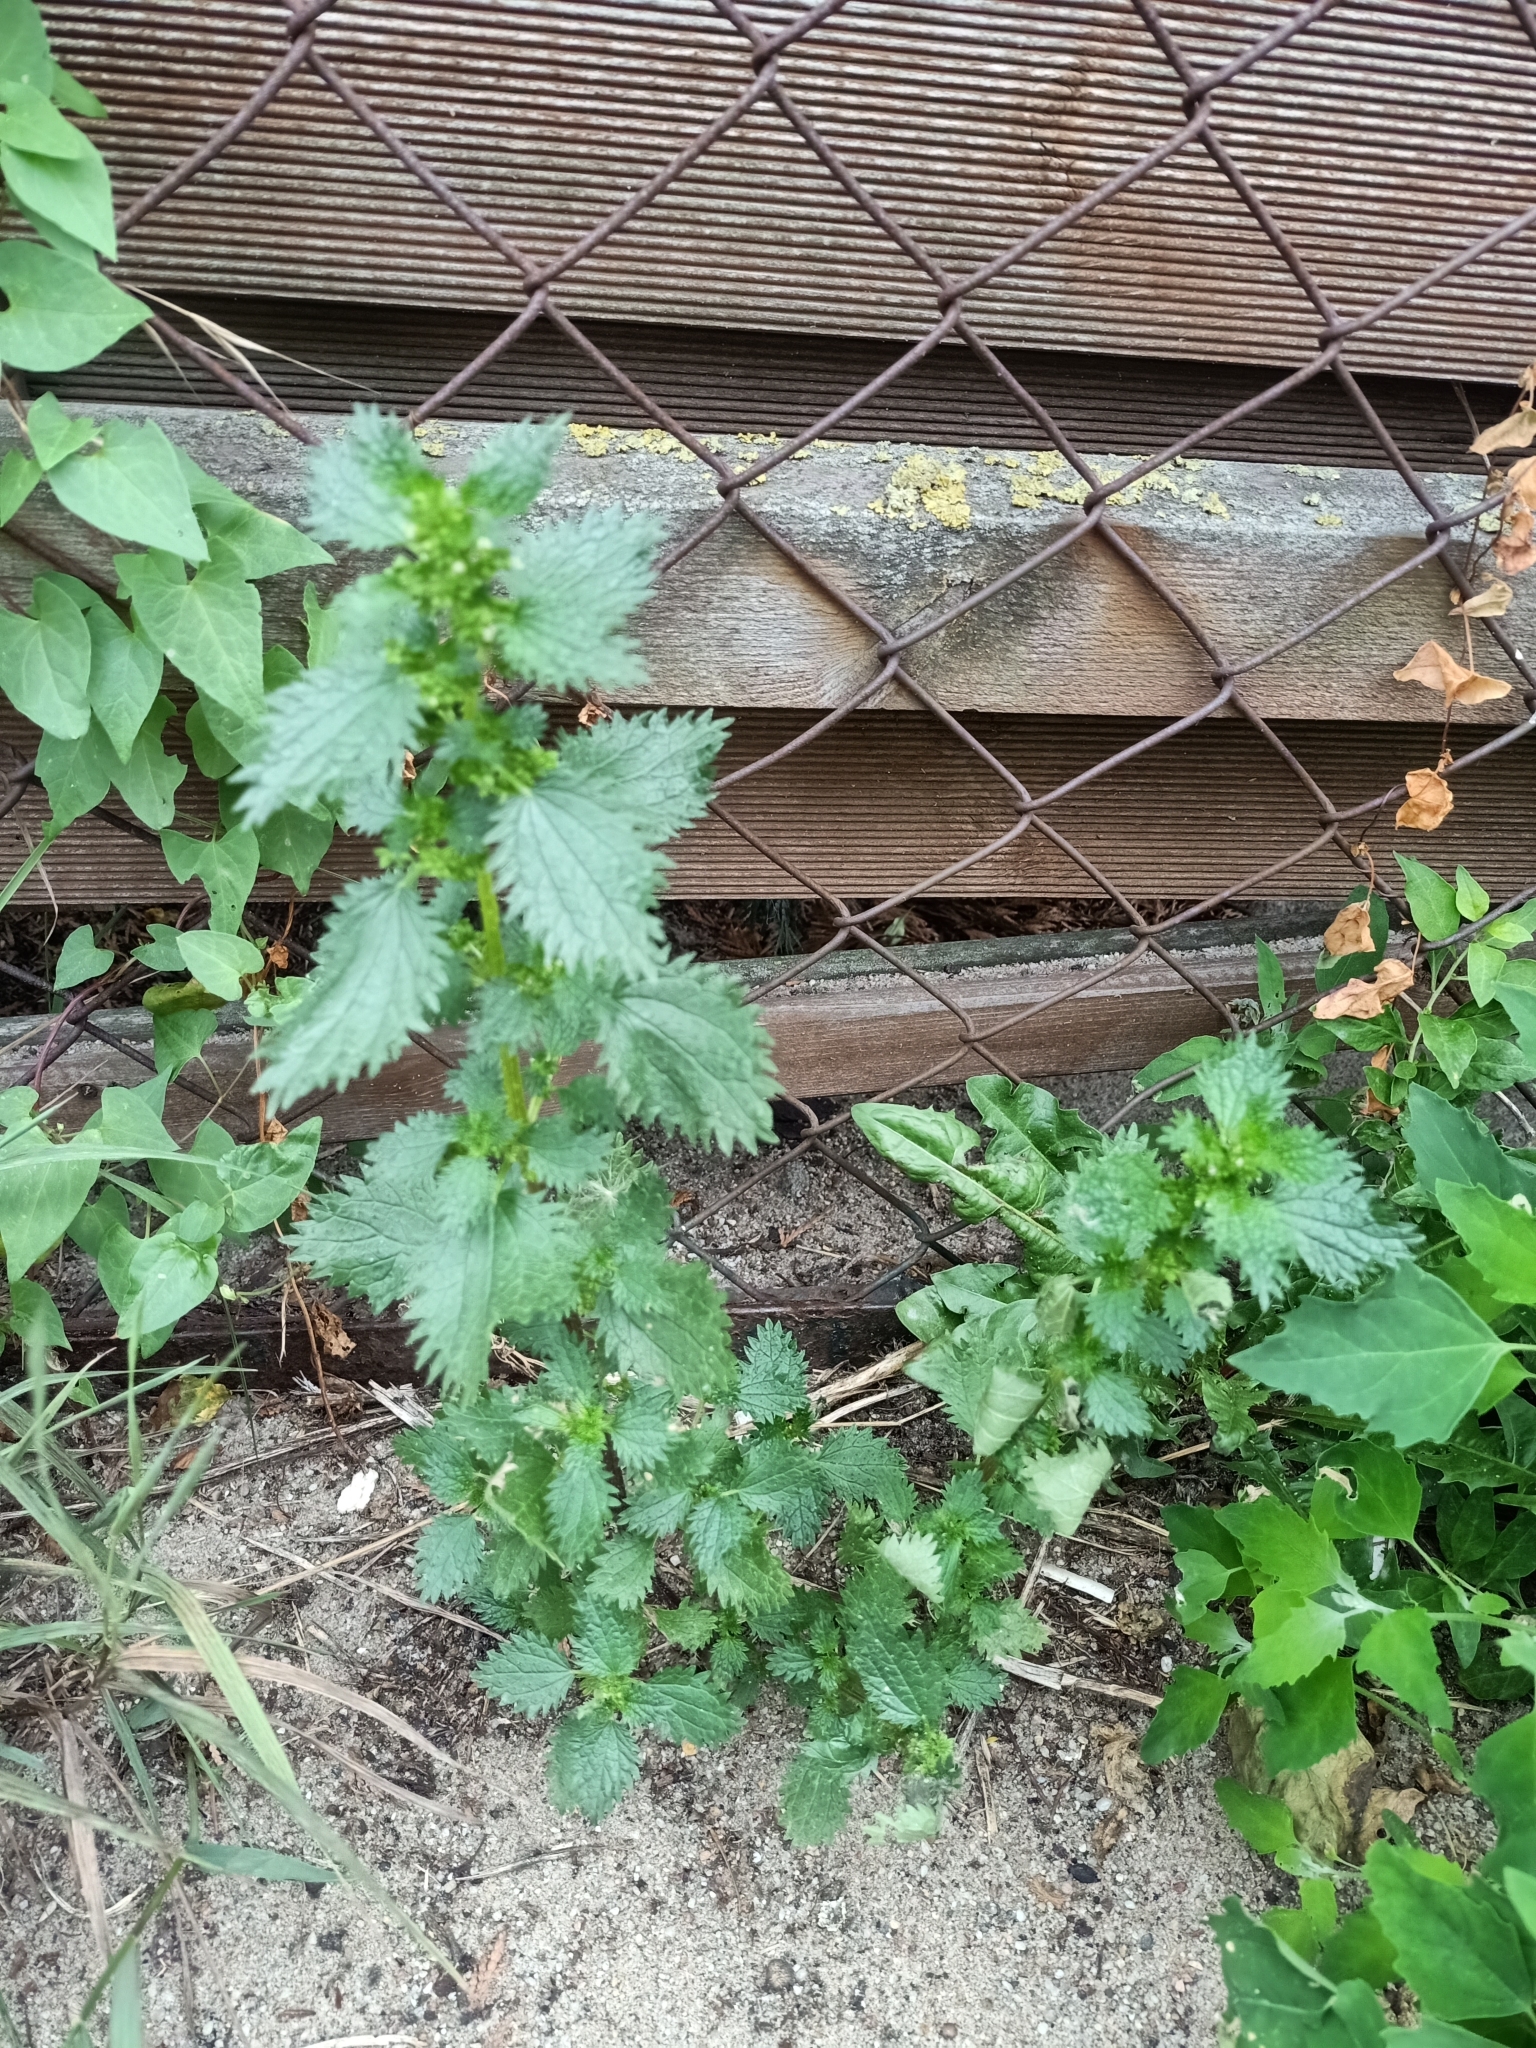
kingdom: Plantae
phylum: Tracheophyta
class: Magnoliopsida
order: Rosales
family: Urticaceae
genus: Urtica
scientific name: Urtica urens
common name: Dwarf nettle
